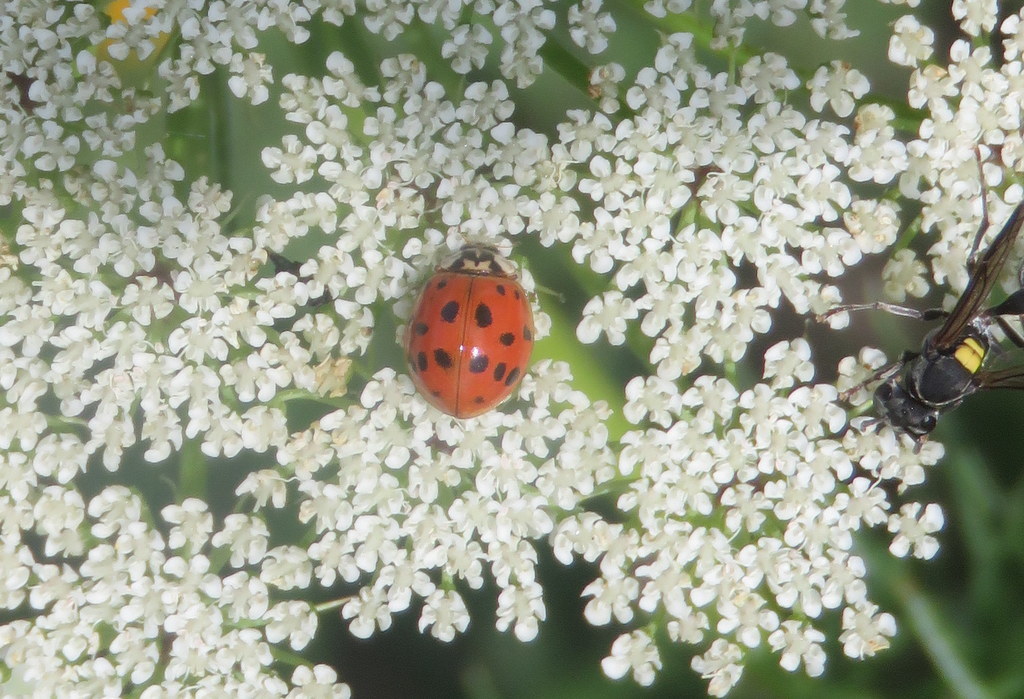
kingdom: Animalia
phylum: Arthropoda
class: Insecta
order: Coleoptera
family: Coccinellidae
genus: Harmonia
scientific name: Harmonia axyridis
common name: Harlequin ladybird
